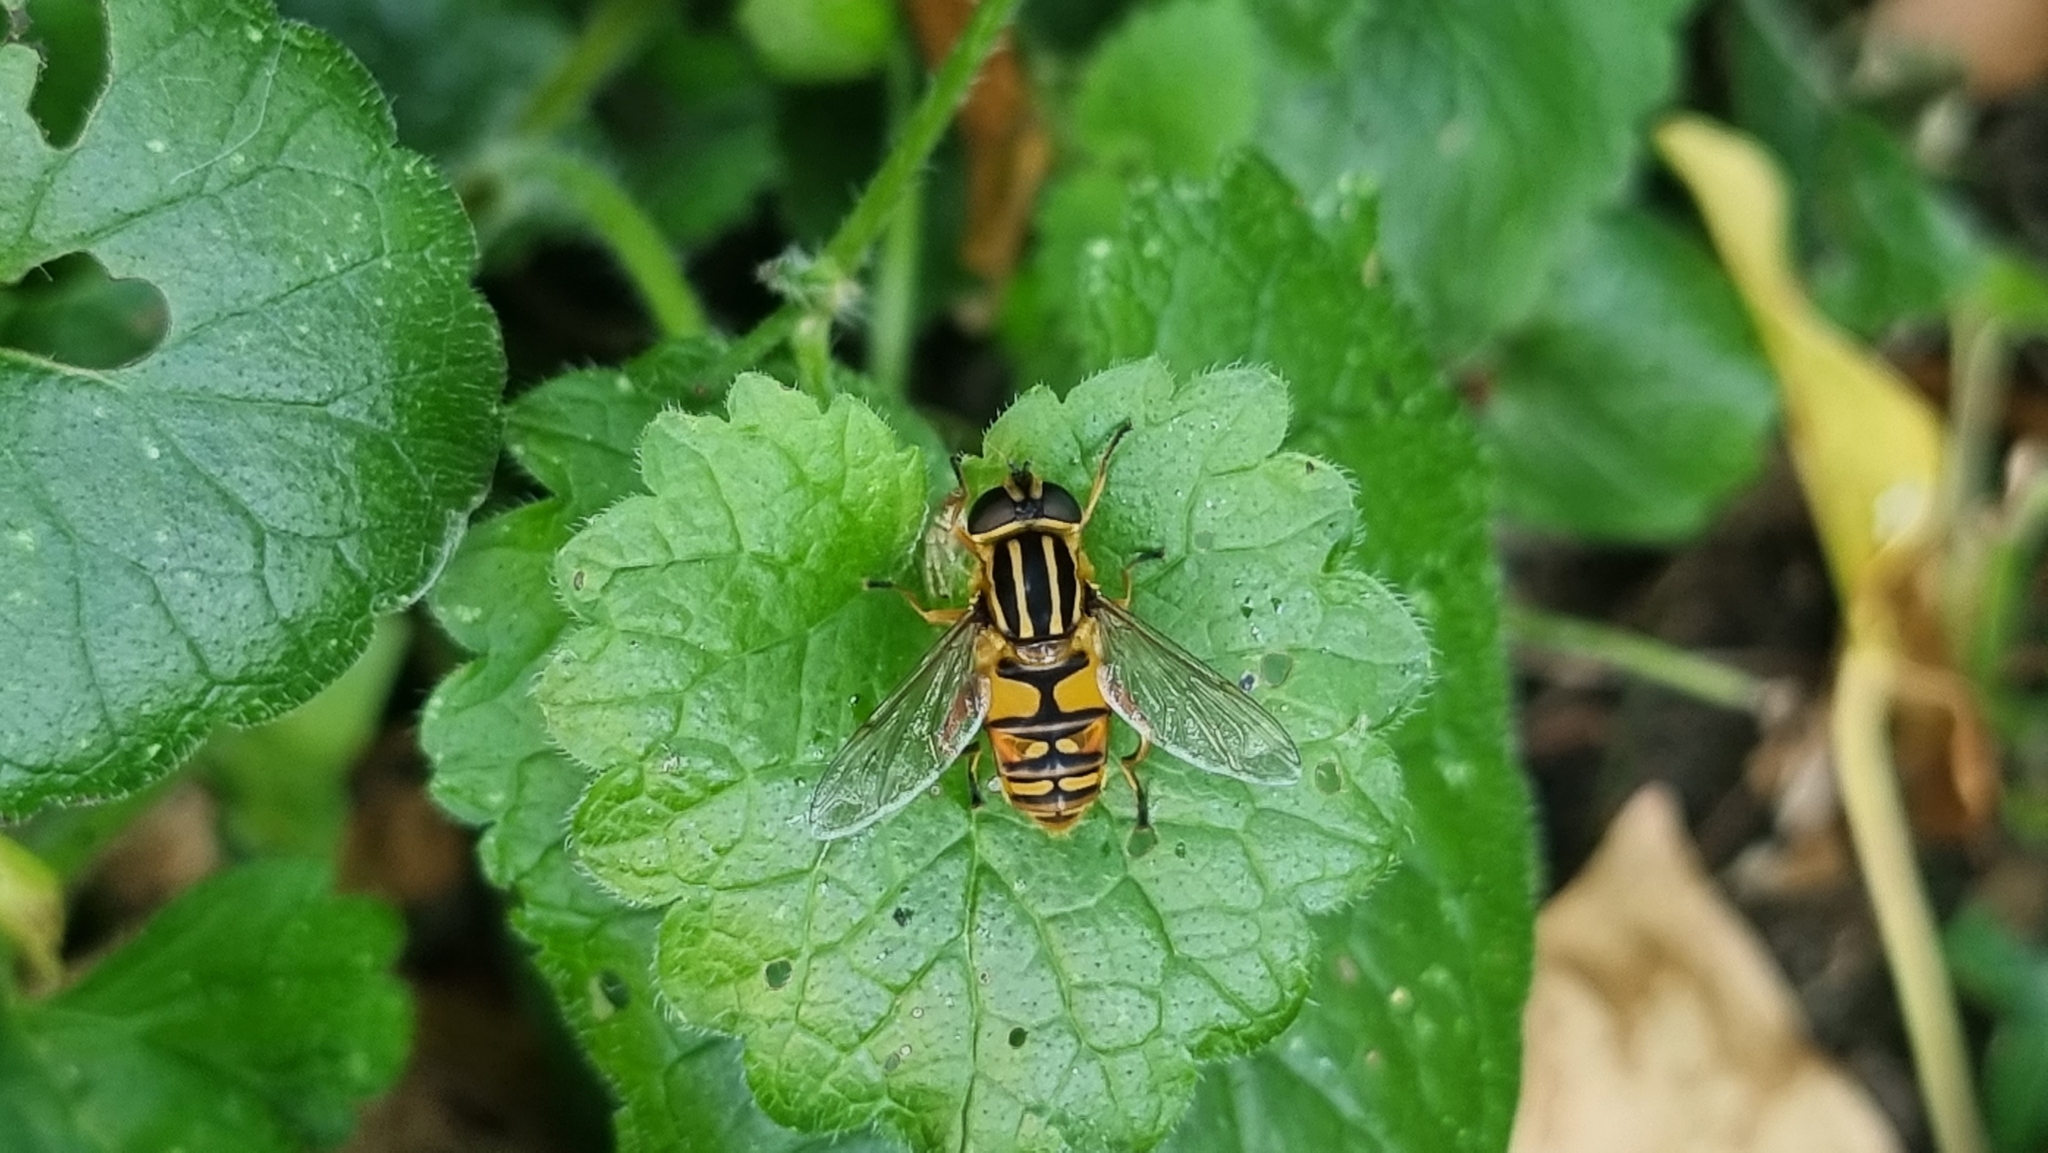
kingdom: Animalia
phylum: Arthropoda
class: Insecta
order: Diptera
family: Syrphidae
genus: Helophilus
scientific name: Helophilus pendulus
